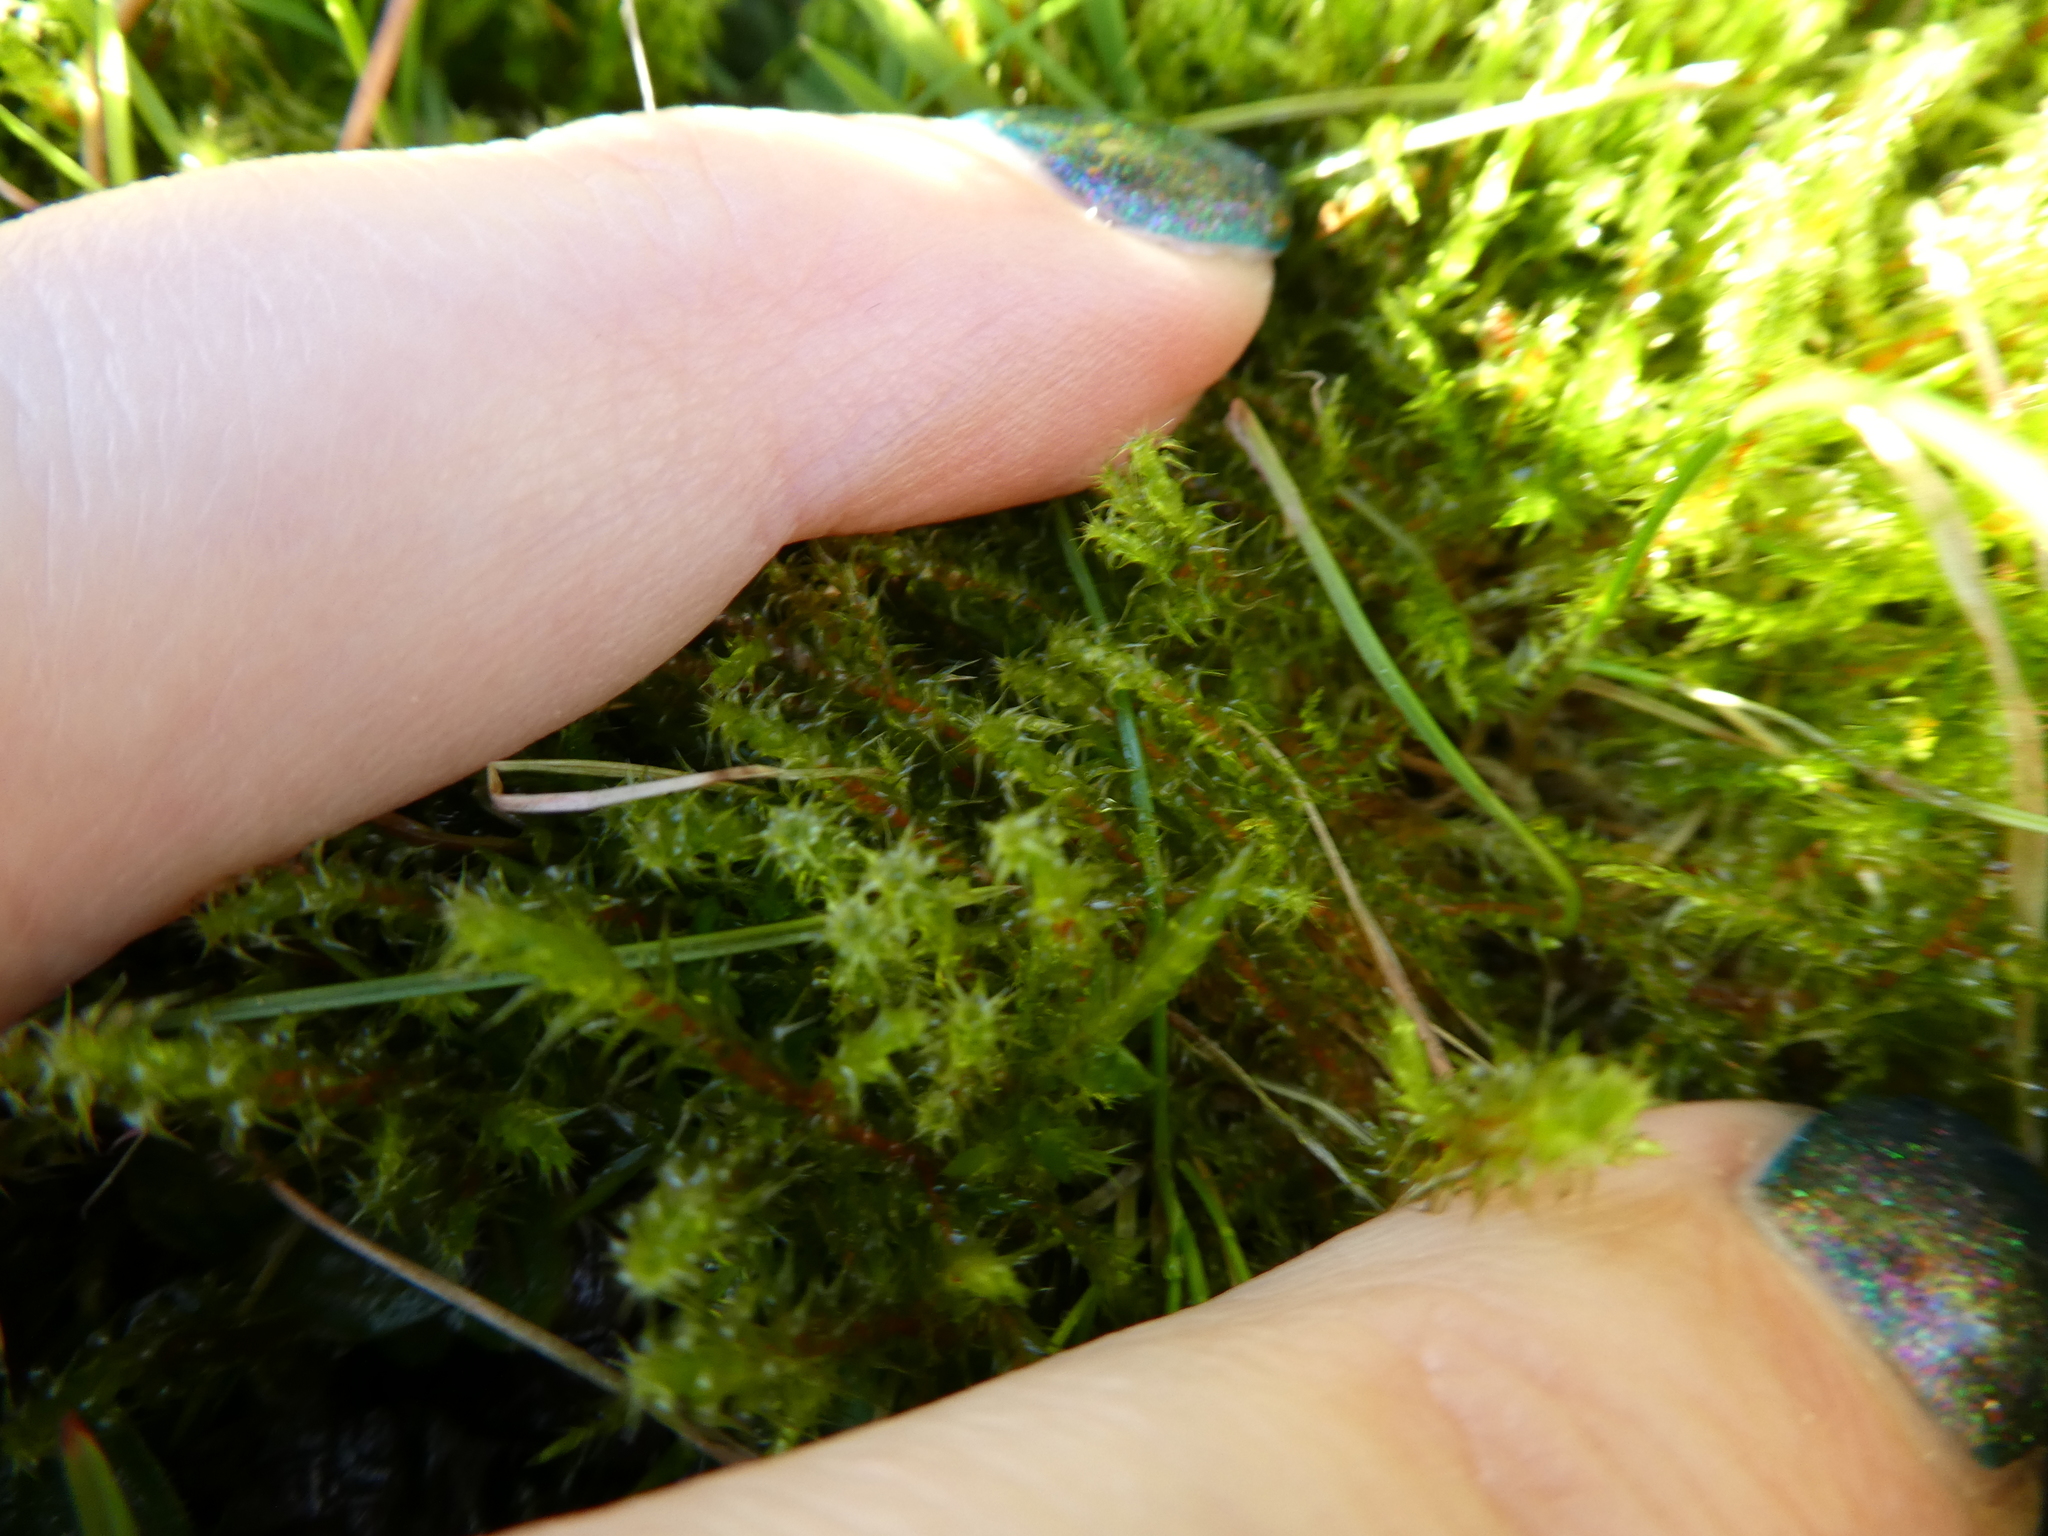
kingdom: Plantae
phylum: Bryophyta
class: Bryopsida
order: Hypnales
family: Hylocomiaceae
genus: Rhytidiadelphus
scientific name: Rhytidiadelphus squarrosus
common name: Springy turf-moss
